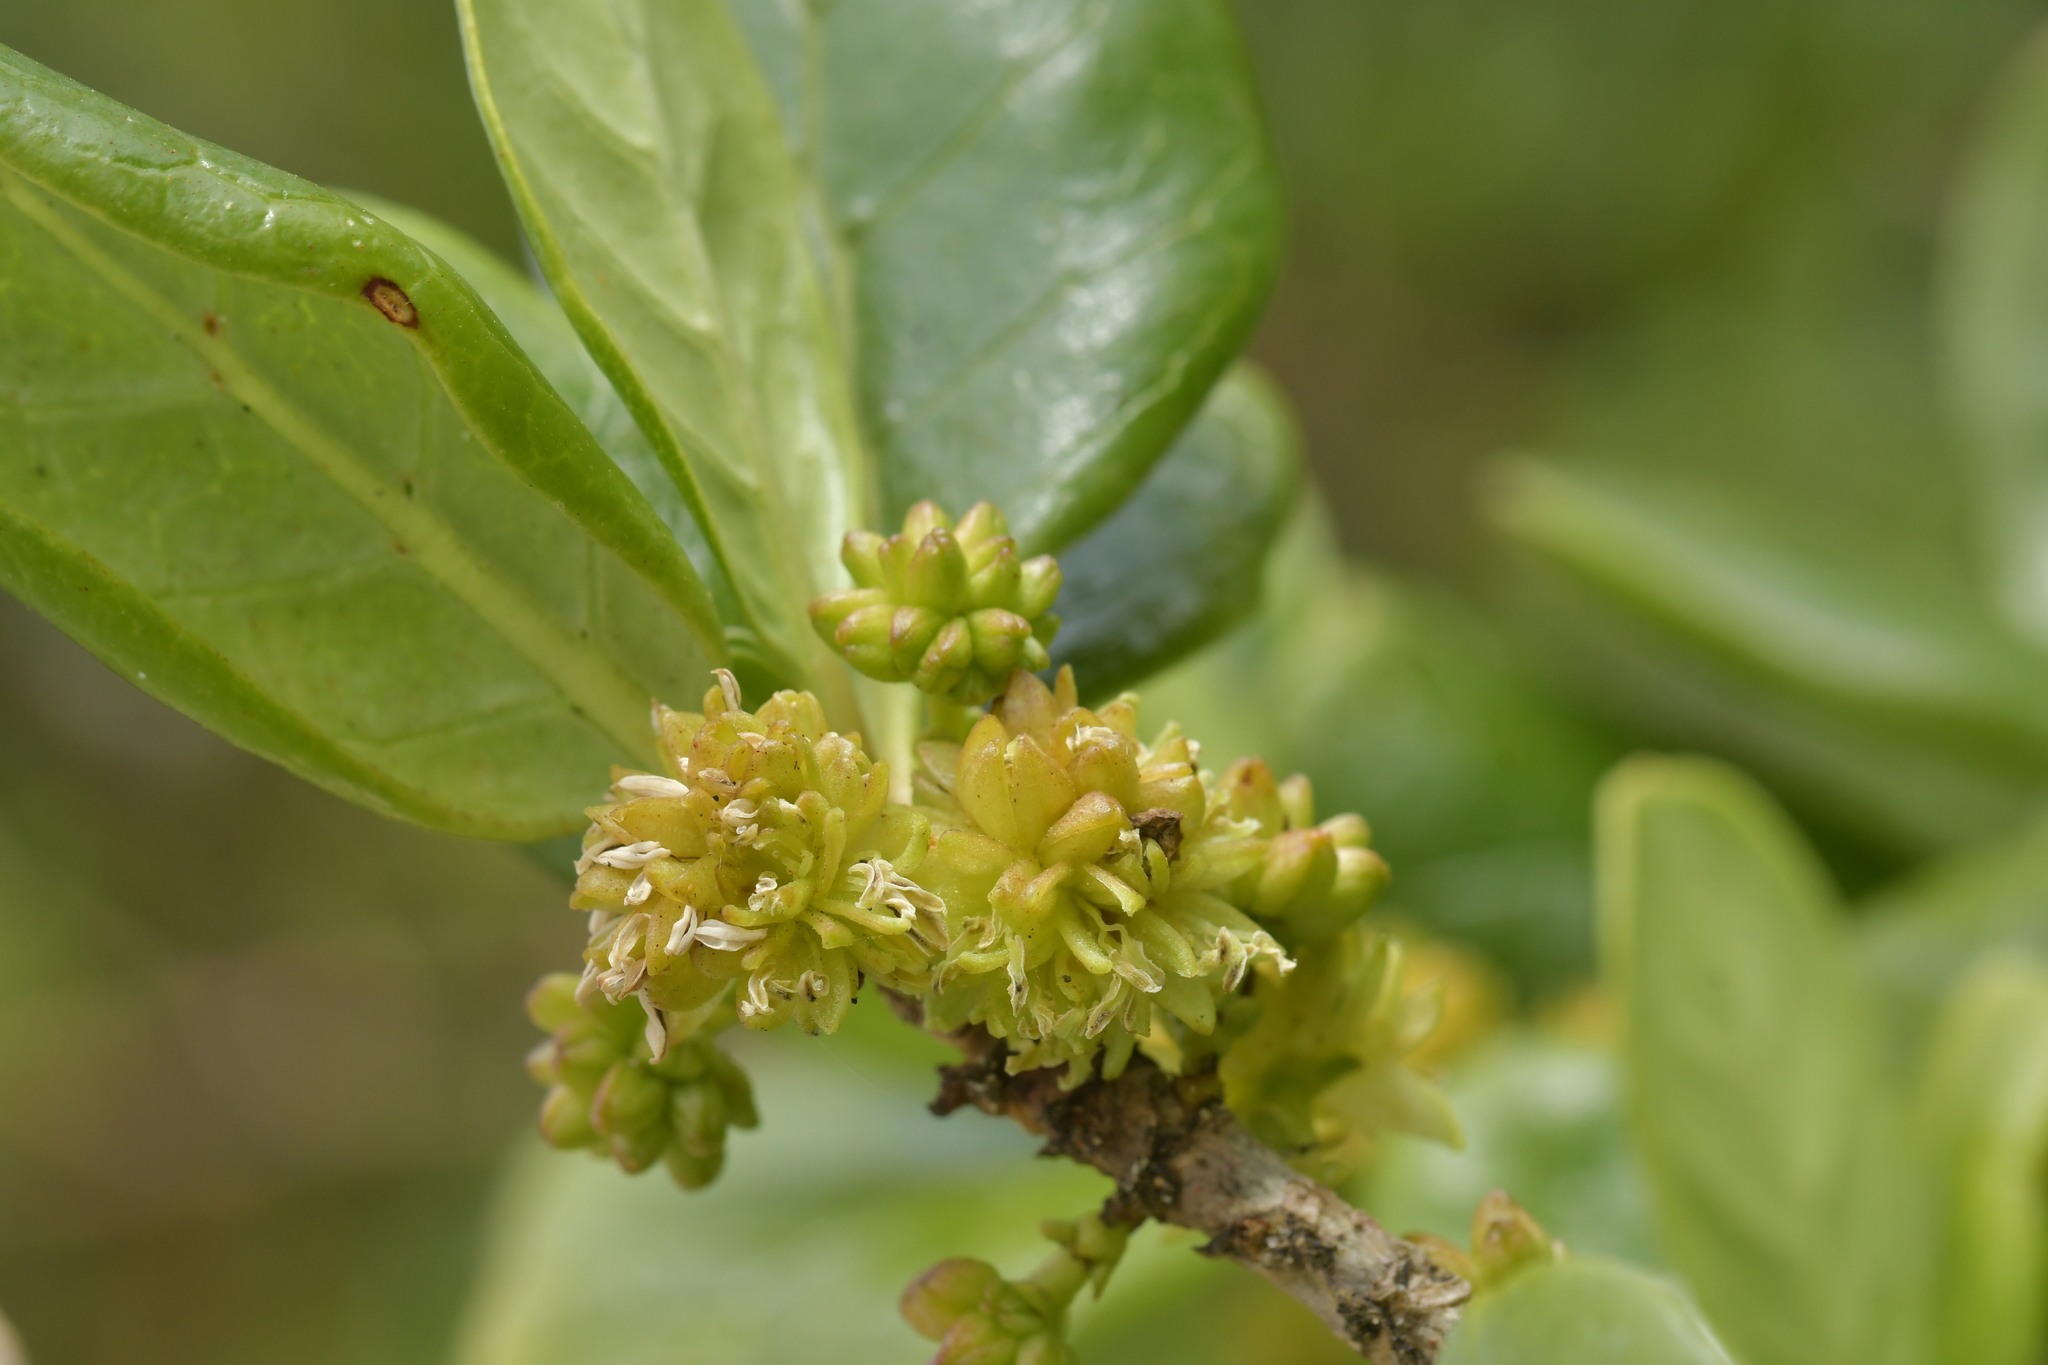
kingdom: Plantae
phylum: Tracheophyta
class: Magnoliopsida
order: Gentianales
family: Rubiaceae
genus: Coprosma
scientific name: Coprosma repens
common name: Tree bedstraw
